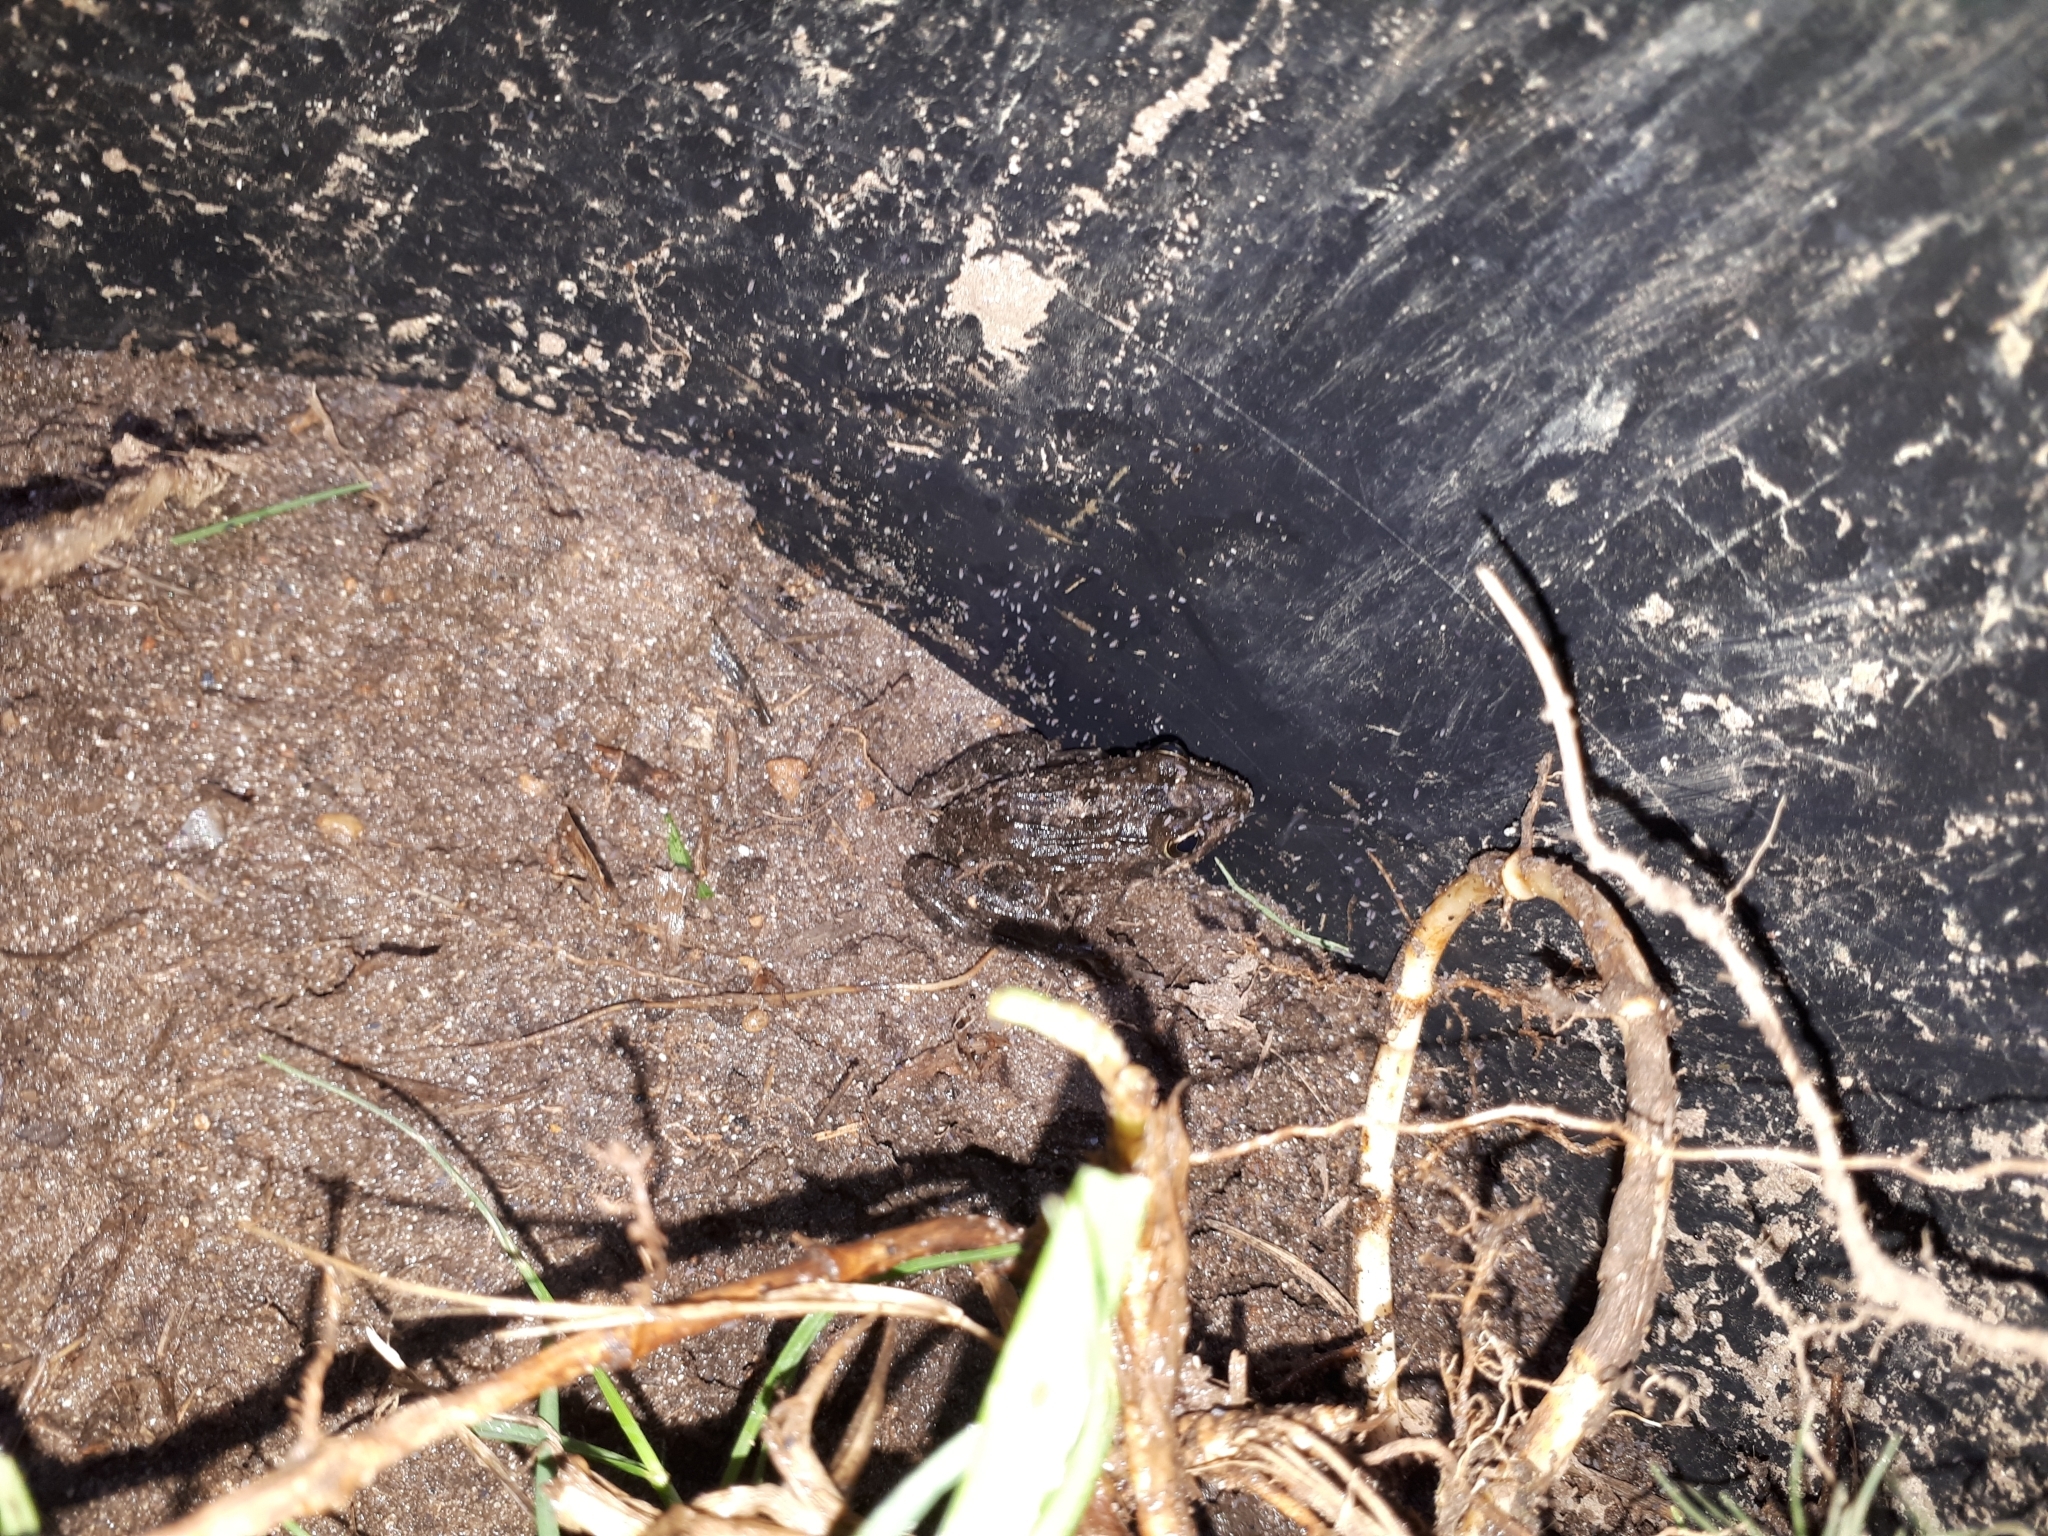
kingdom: Animalia
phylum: Chordata
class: Amphibia
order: Anura
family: Pyxicephalidae
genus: Strongylopus
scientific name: Strongylopus grayii
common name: Gray's stream frog
